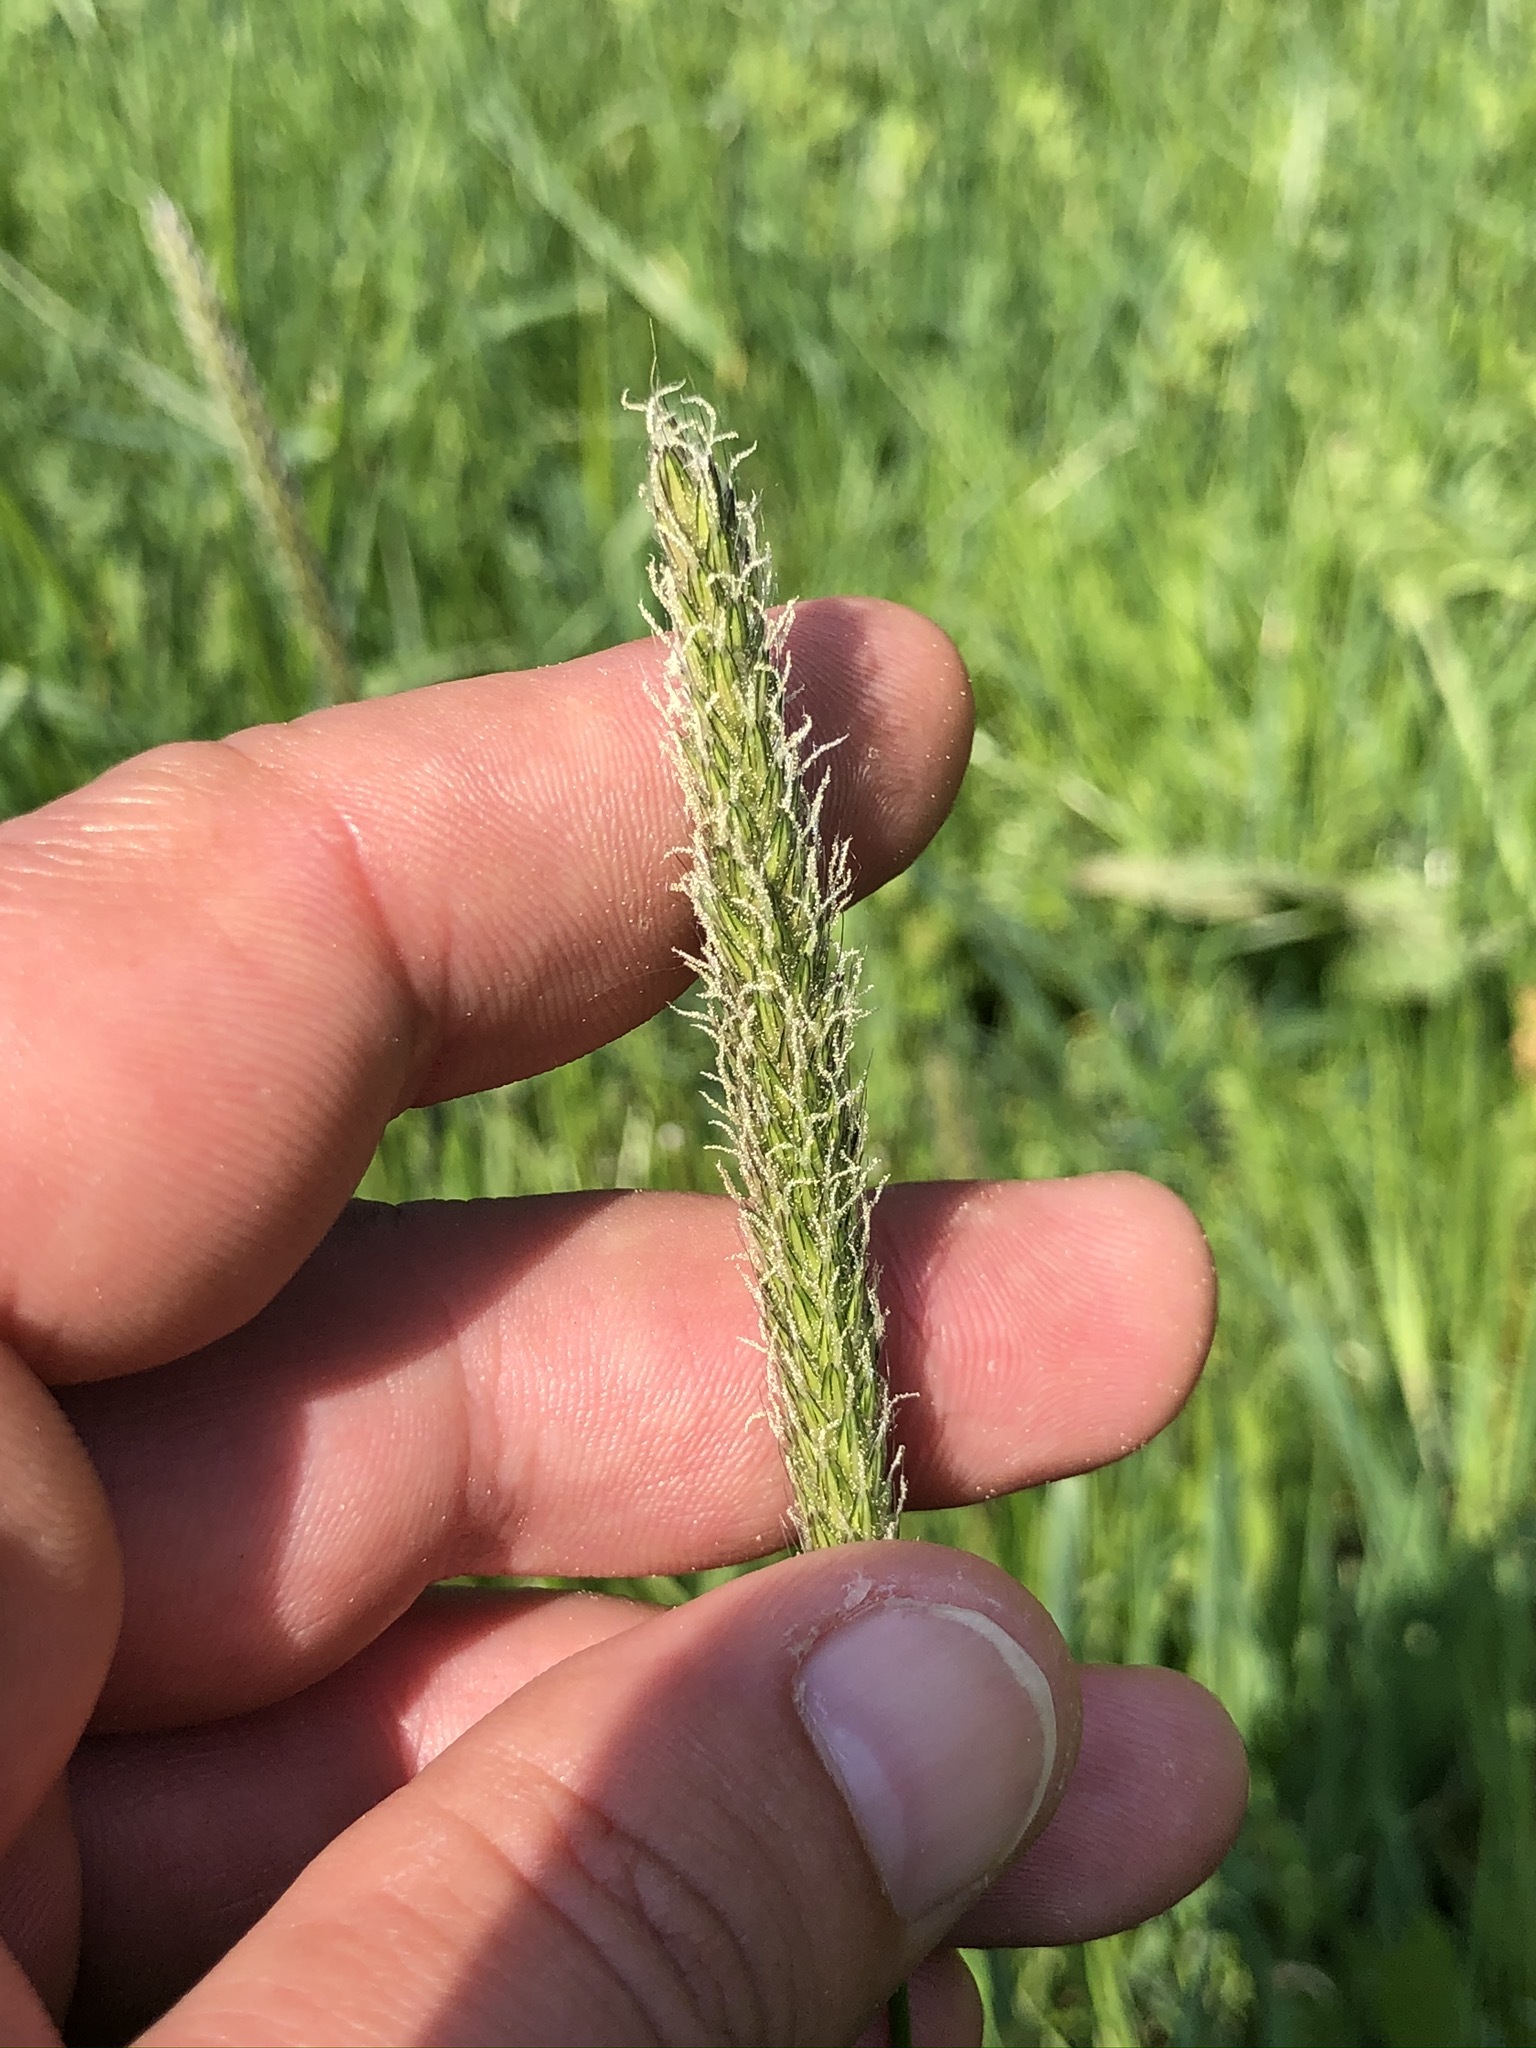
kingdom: Plantae
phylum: Tracheophyta
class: Liliopsida
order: Poales
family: Poaceae
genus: Alopecurus
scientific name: Alopecurus pratensis
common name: Meadow foxtail
